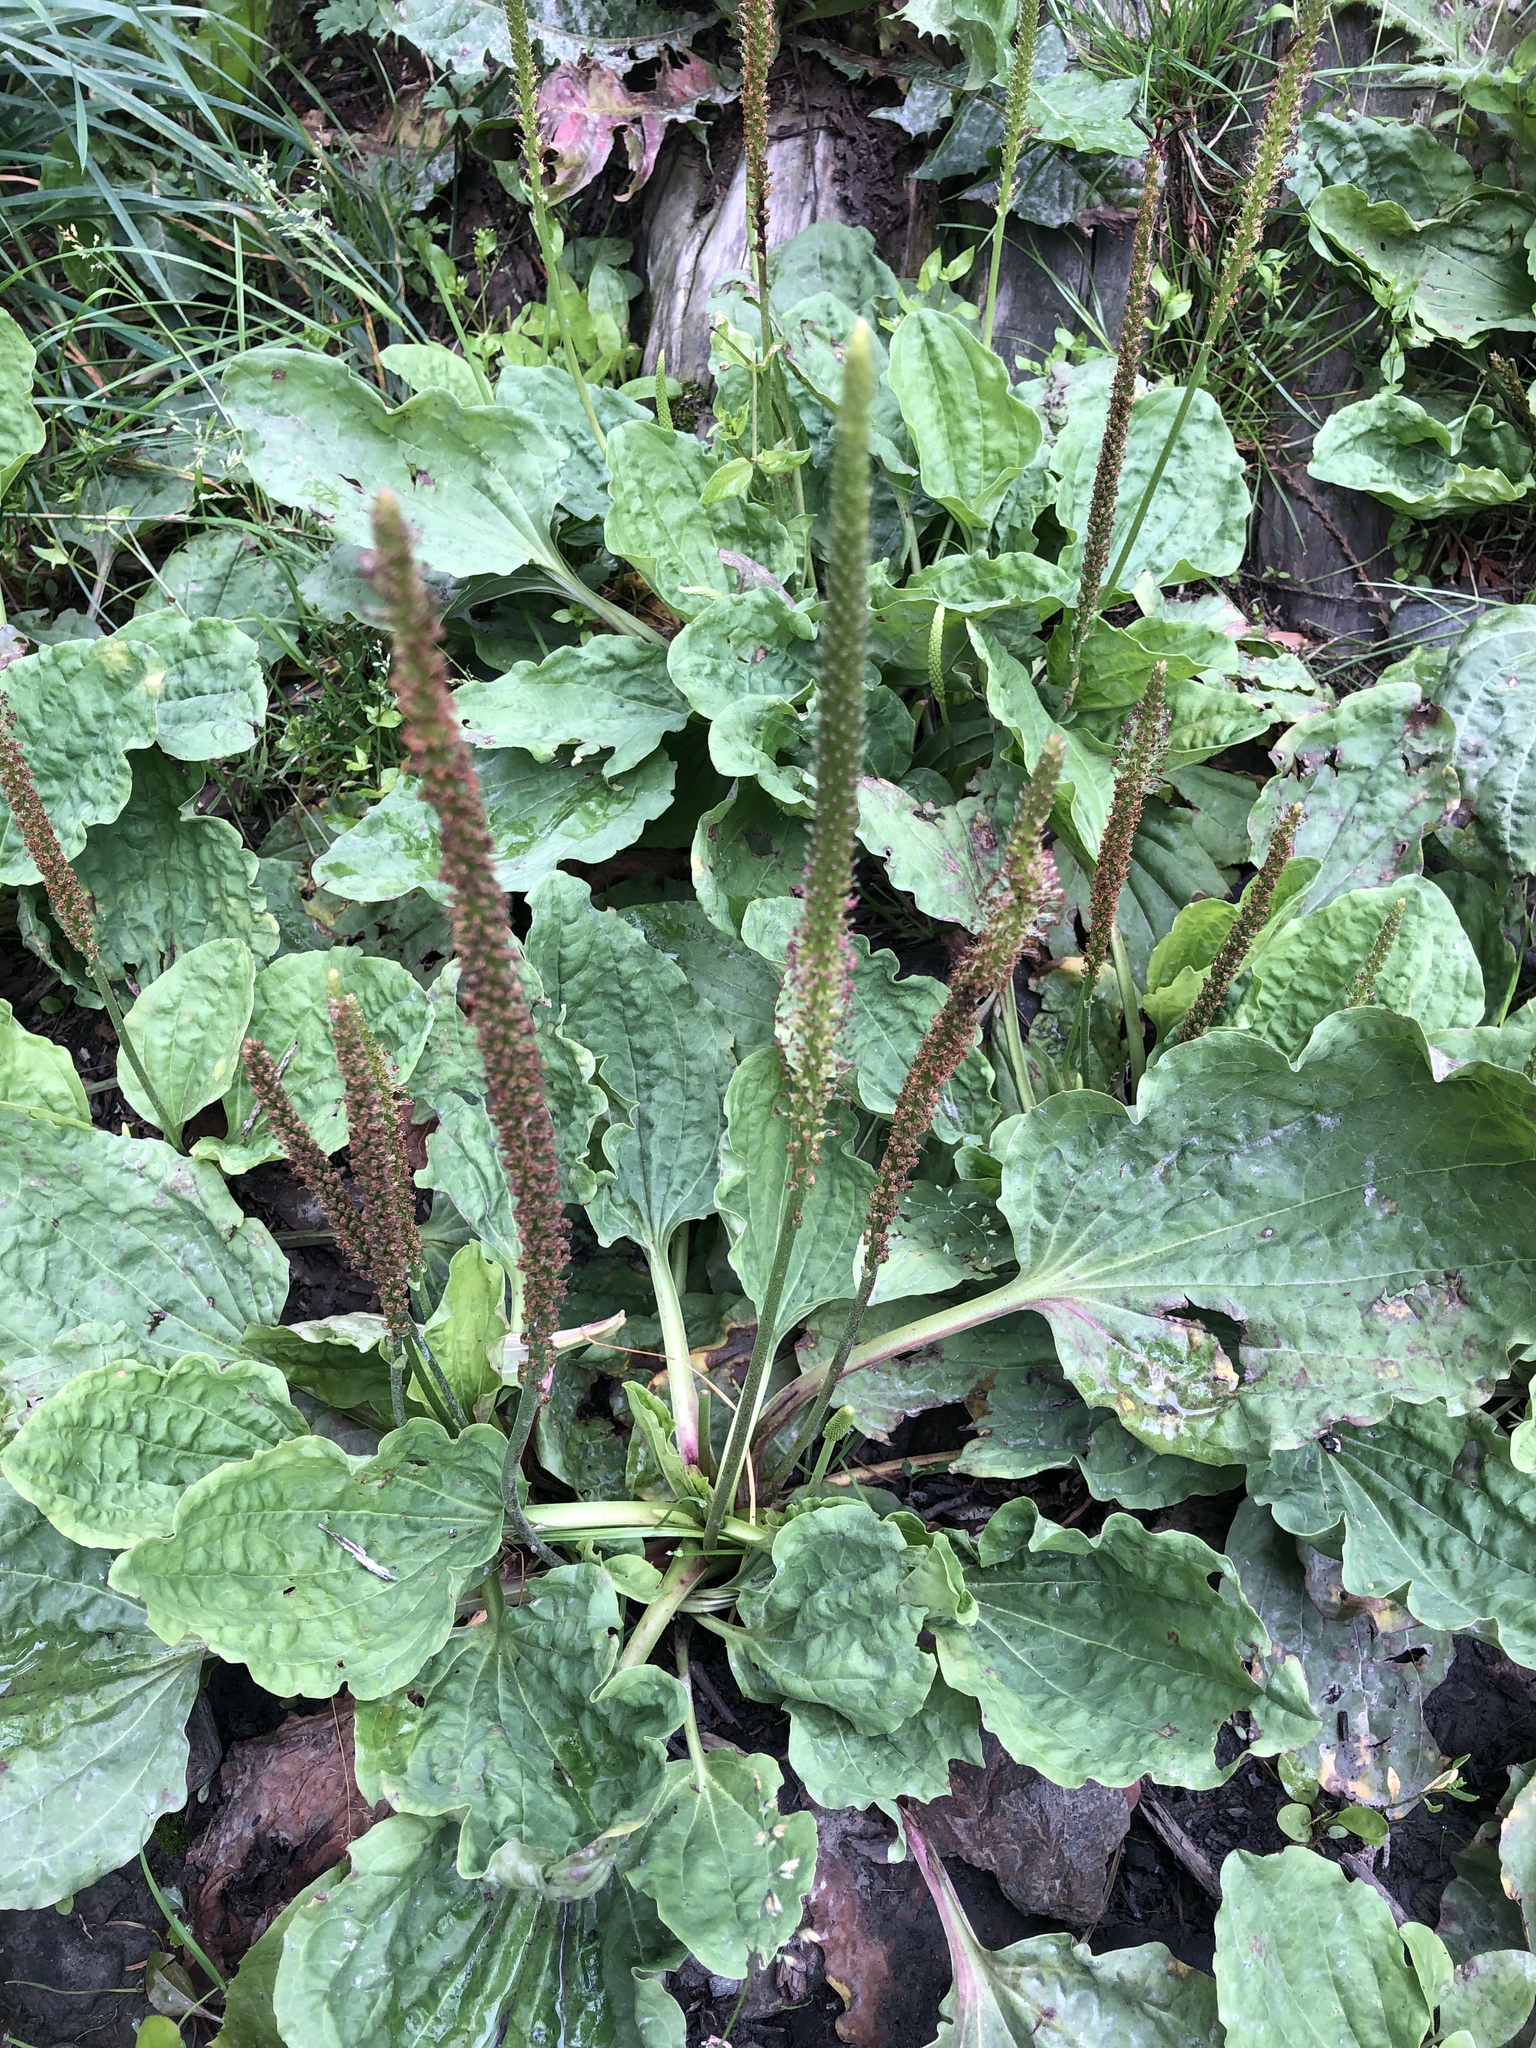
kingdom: Plantae
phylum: Tracheophyta
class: Magnoliopsida
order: Lamiales
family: Plantaginaceae
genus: Plantago
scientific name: Plantago major
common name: Common plantain
